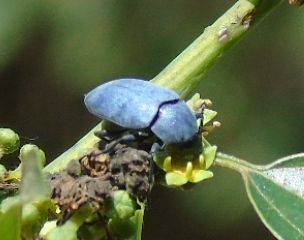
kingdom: Animalia
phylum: Arthropoda
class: Insecta
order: Coleoptera
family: Tenebrionidae
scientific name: Tenebrionidae
